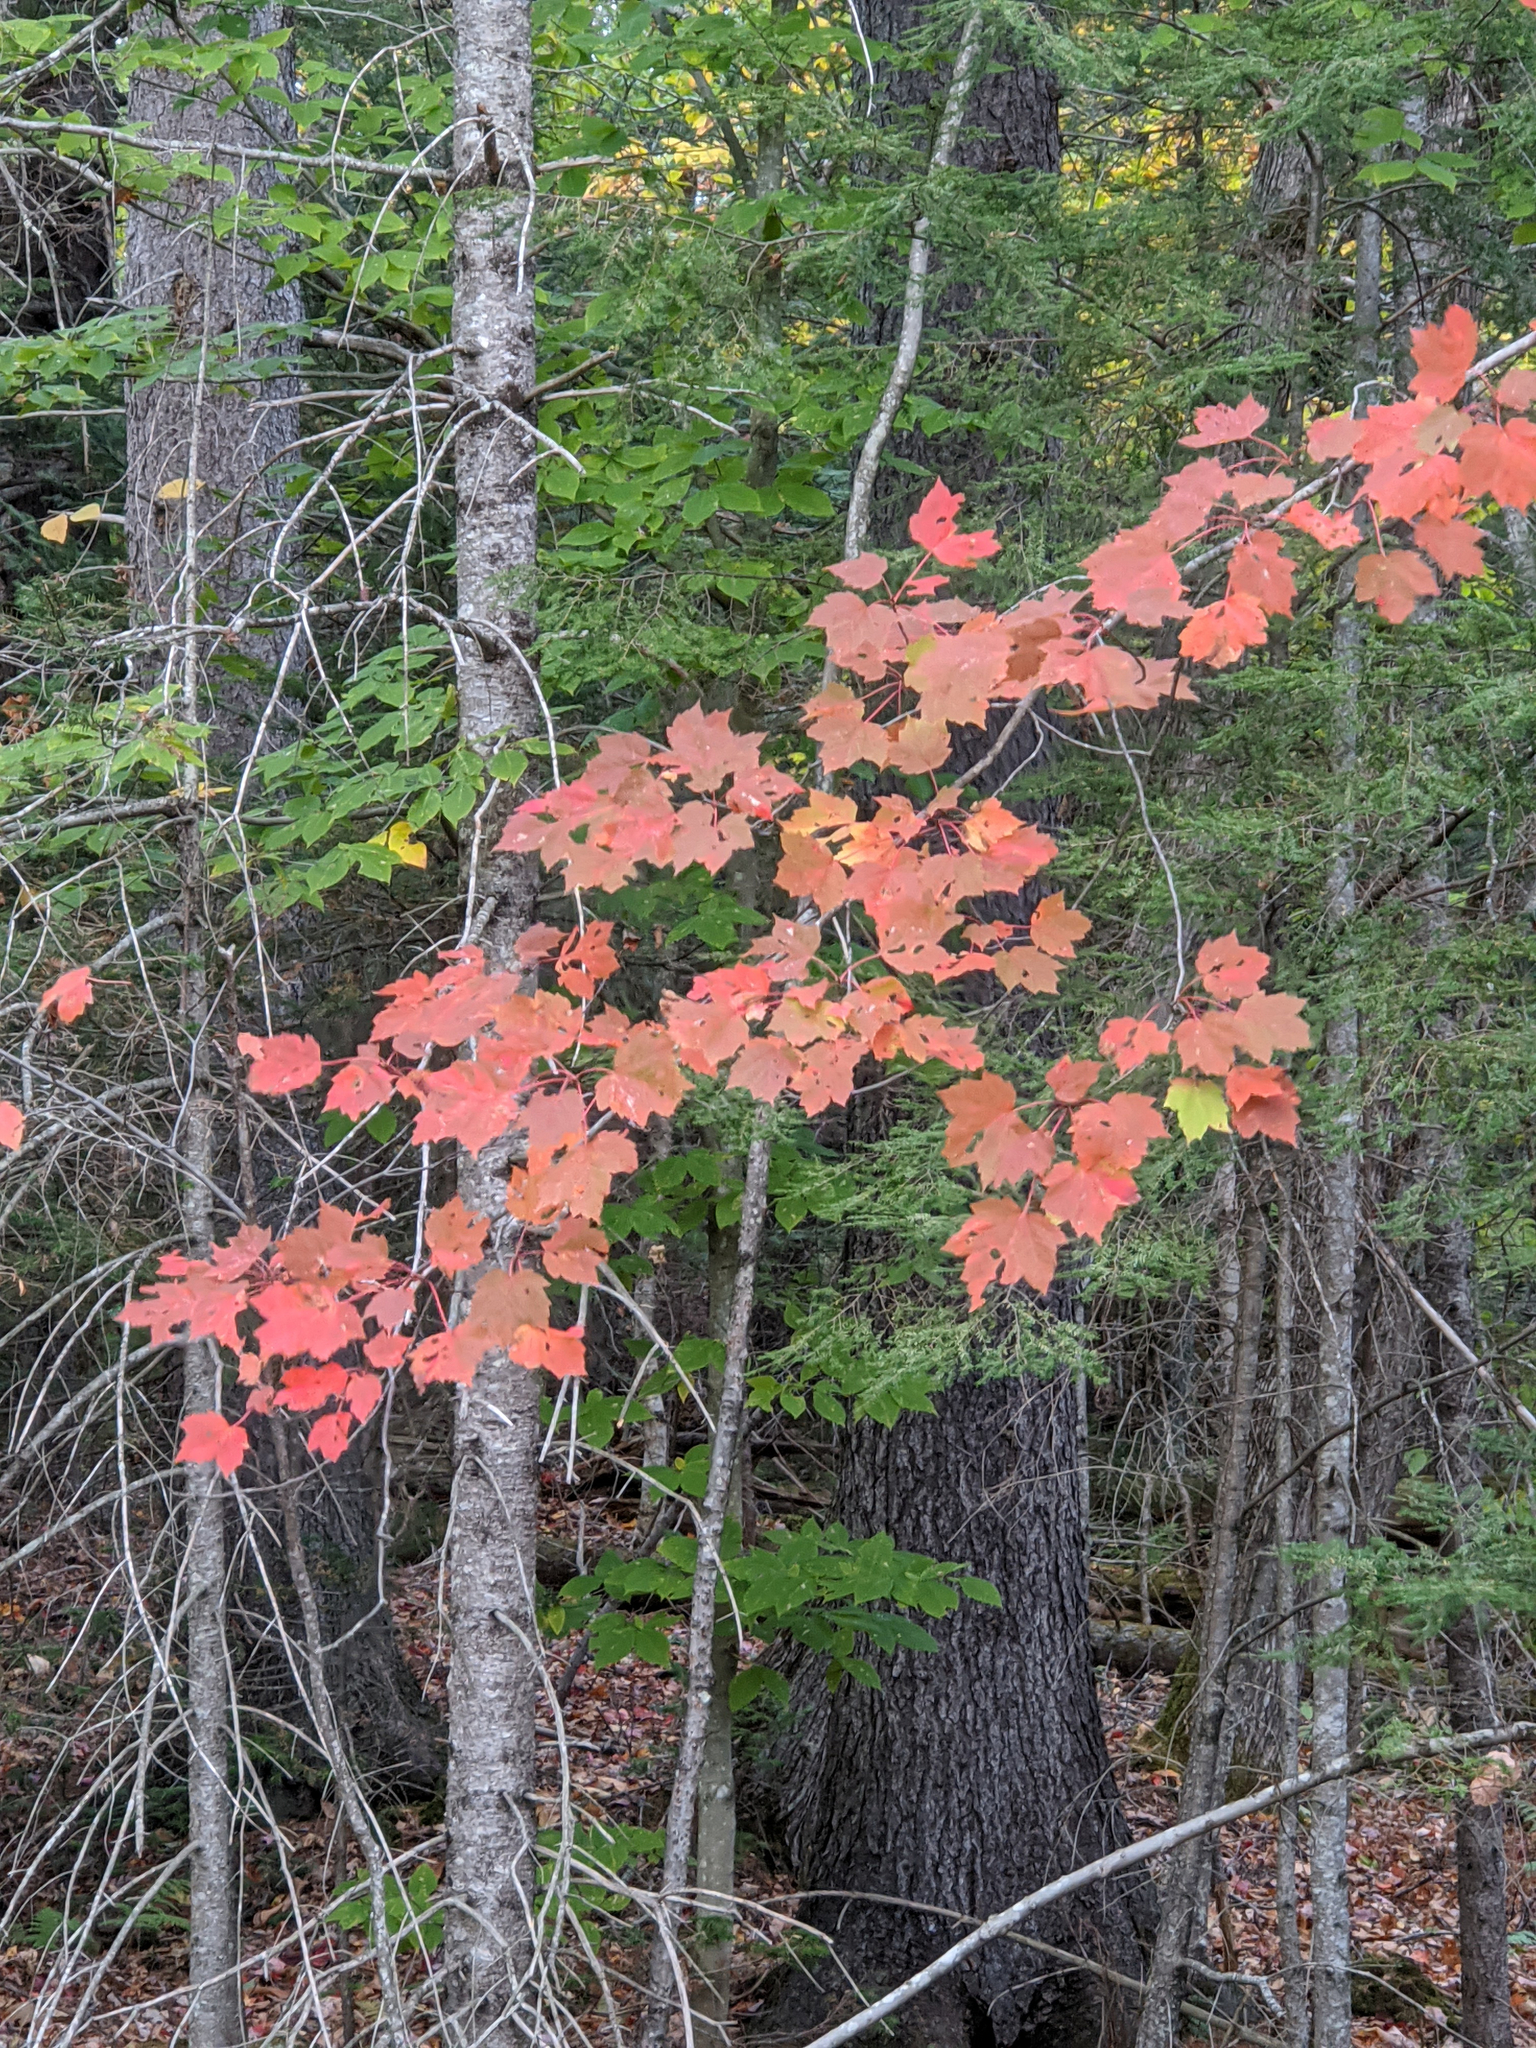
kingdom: Plantae
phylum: Tracheophyta
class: Magnoliopsida
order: Sapindales
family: Sapindaceae
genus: Acer
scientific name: Acer rubrum
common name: Red maple
